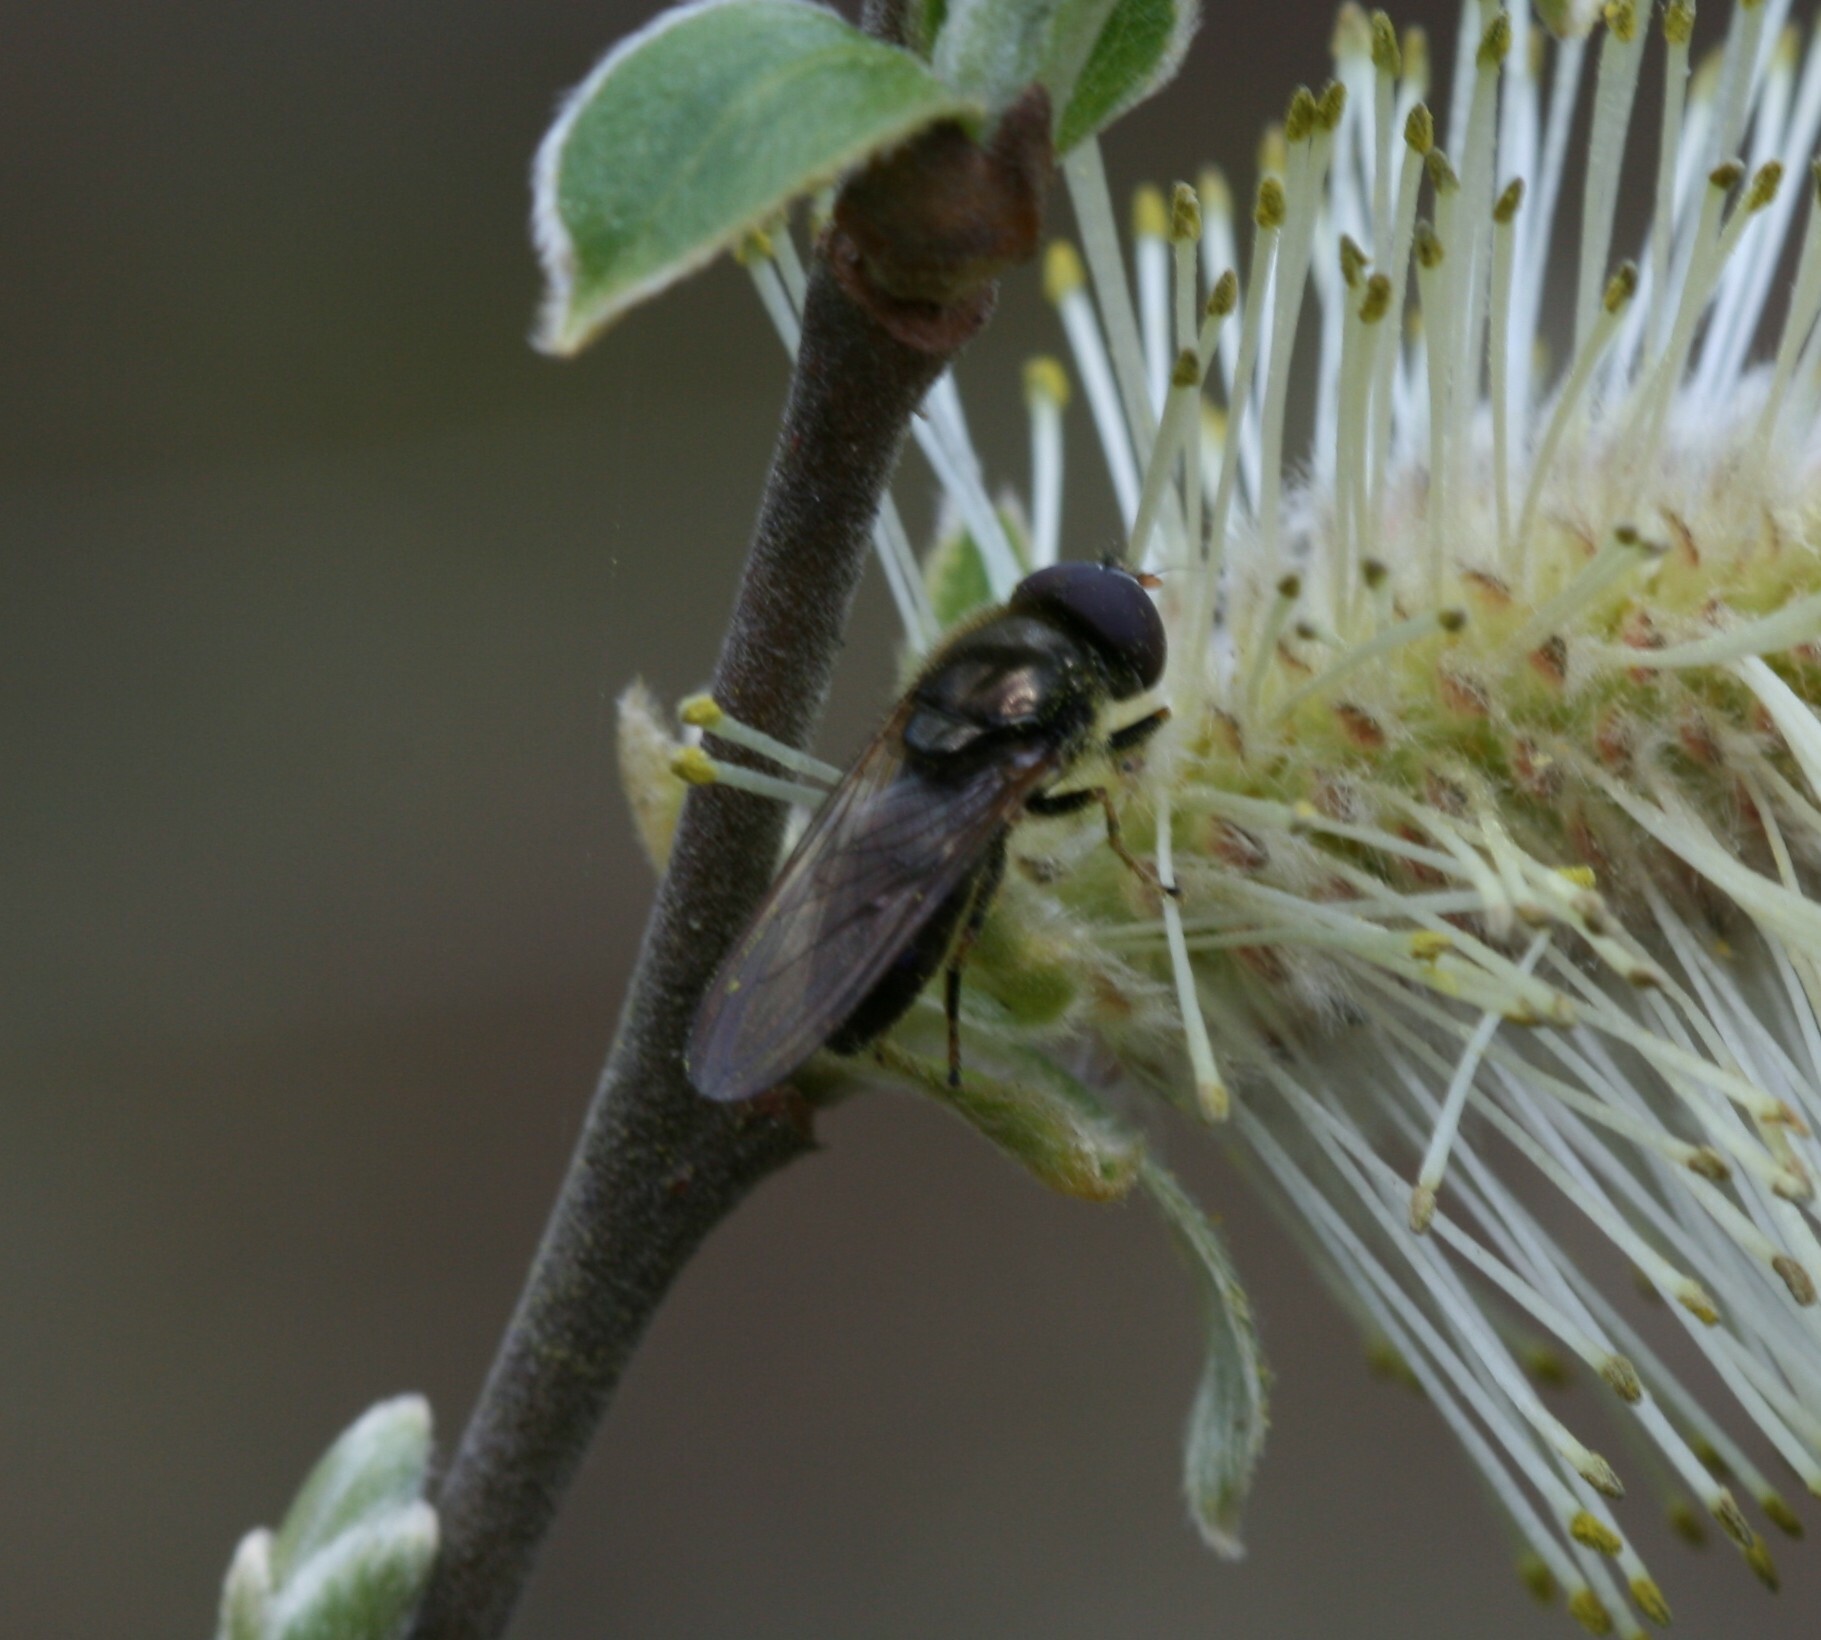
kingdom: Animalia
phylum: Arthropoda
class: Insecta
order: Diptera
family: Syrphidae
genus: Cheilosia
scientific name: Cheilosia
